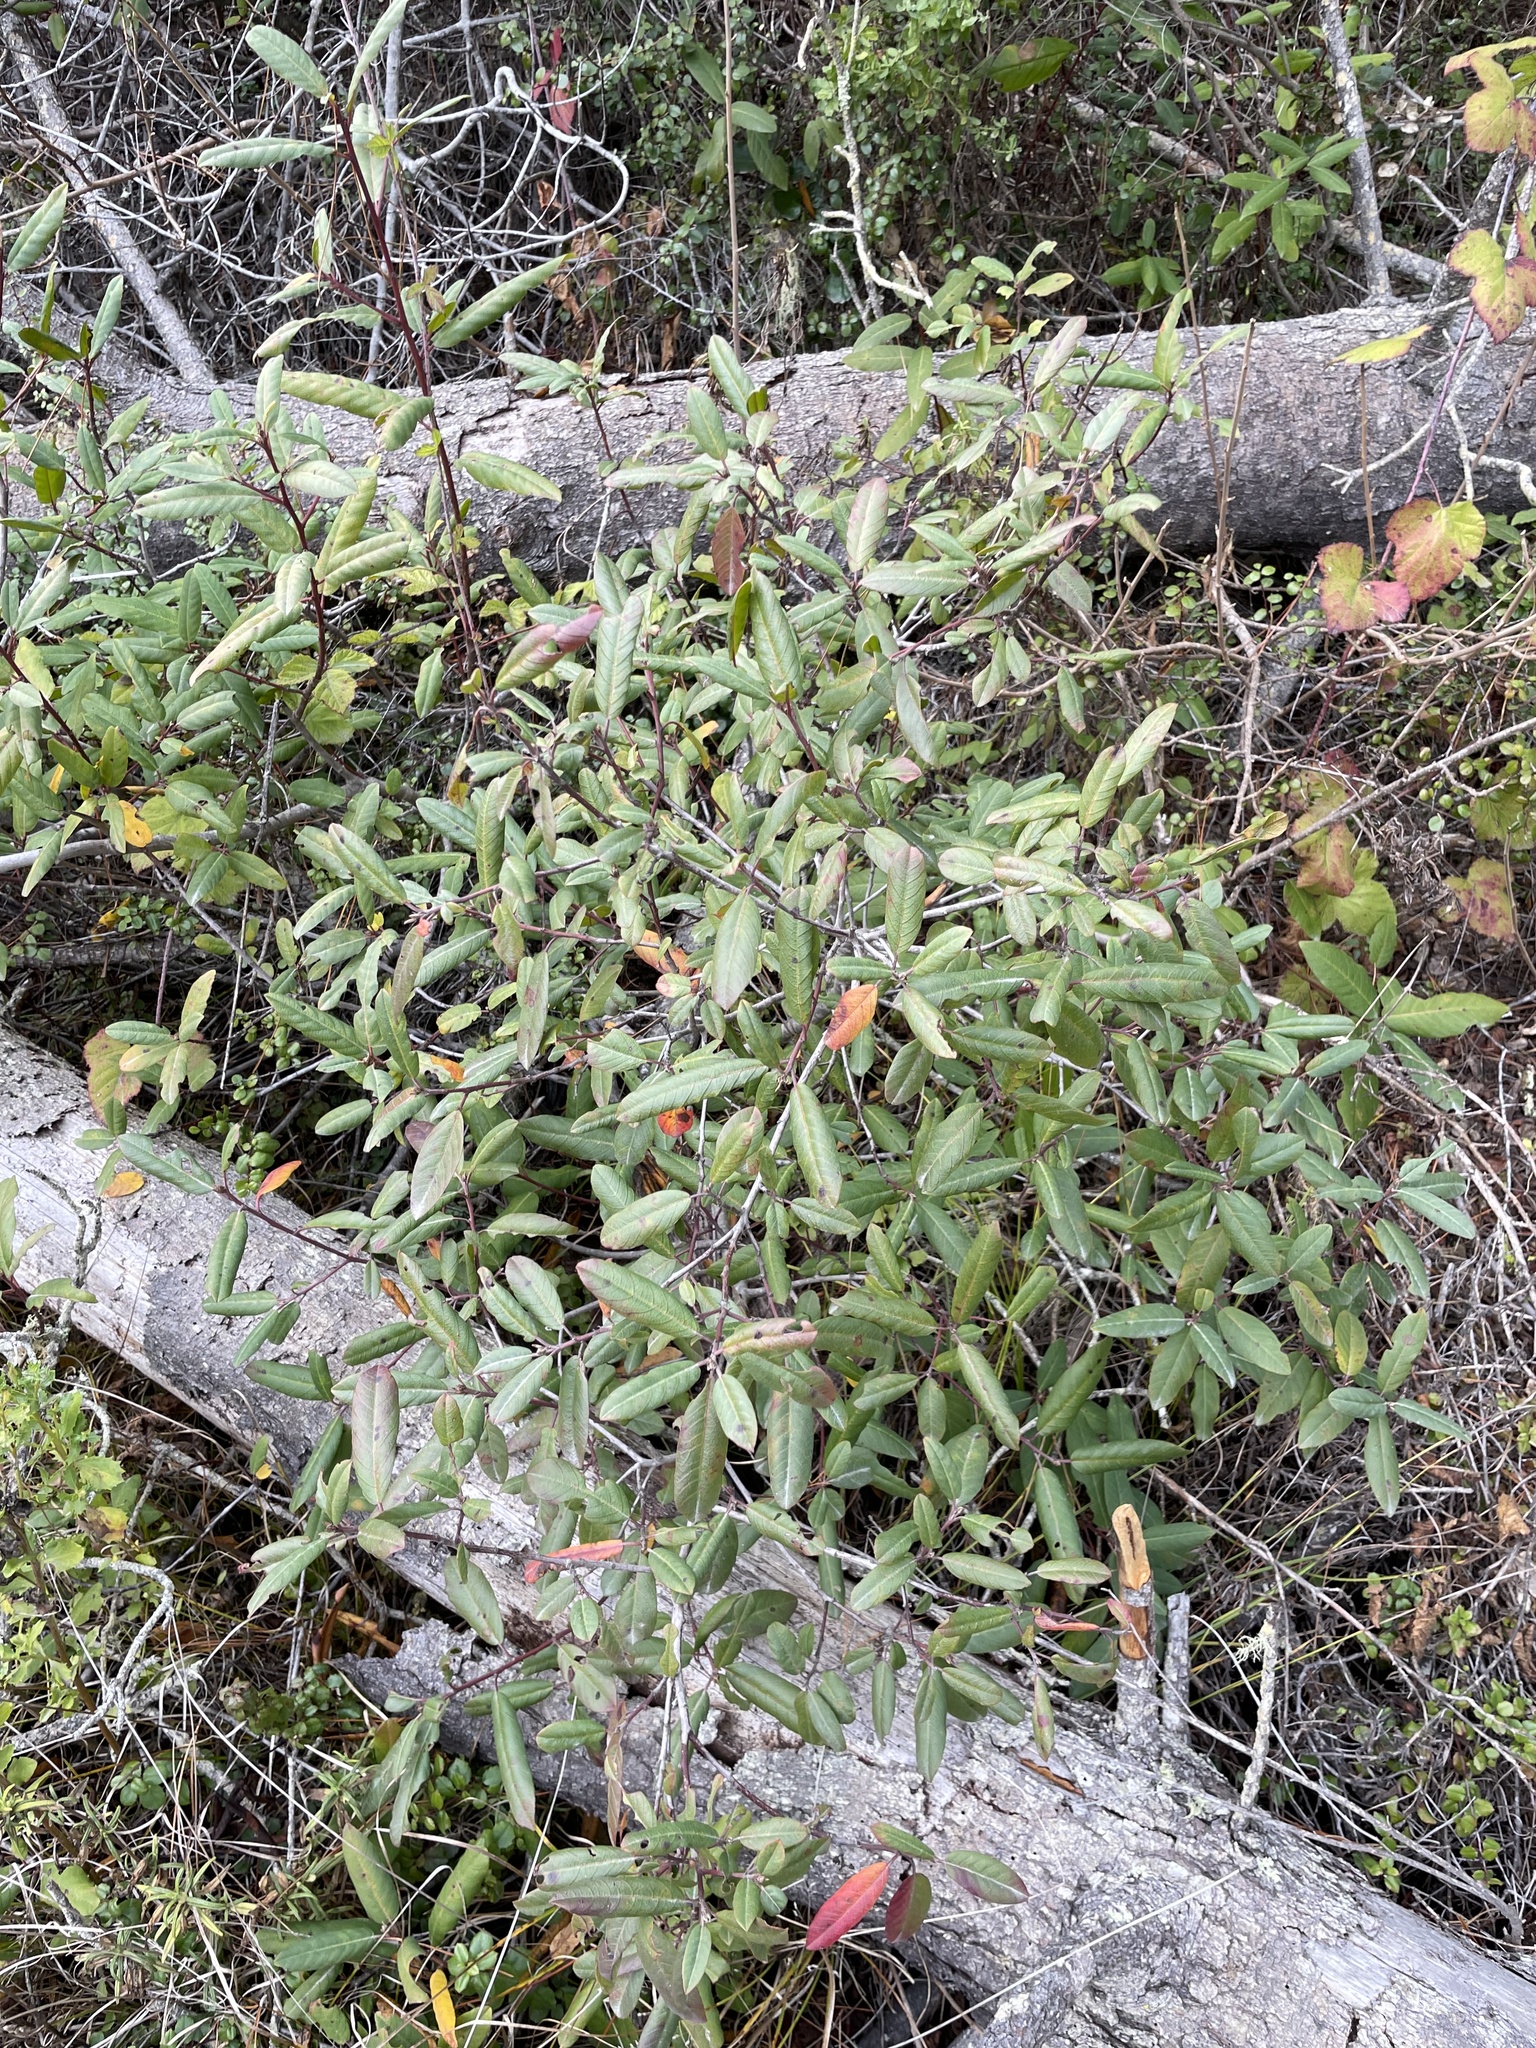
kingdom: Plantae
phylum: Tracheophyta
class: Magnoliopsida
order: Rosales
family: Rhamnaceae
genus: Frangula
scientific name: Frangula californica
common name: California buckthorn
